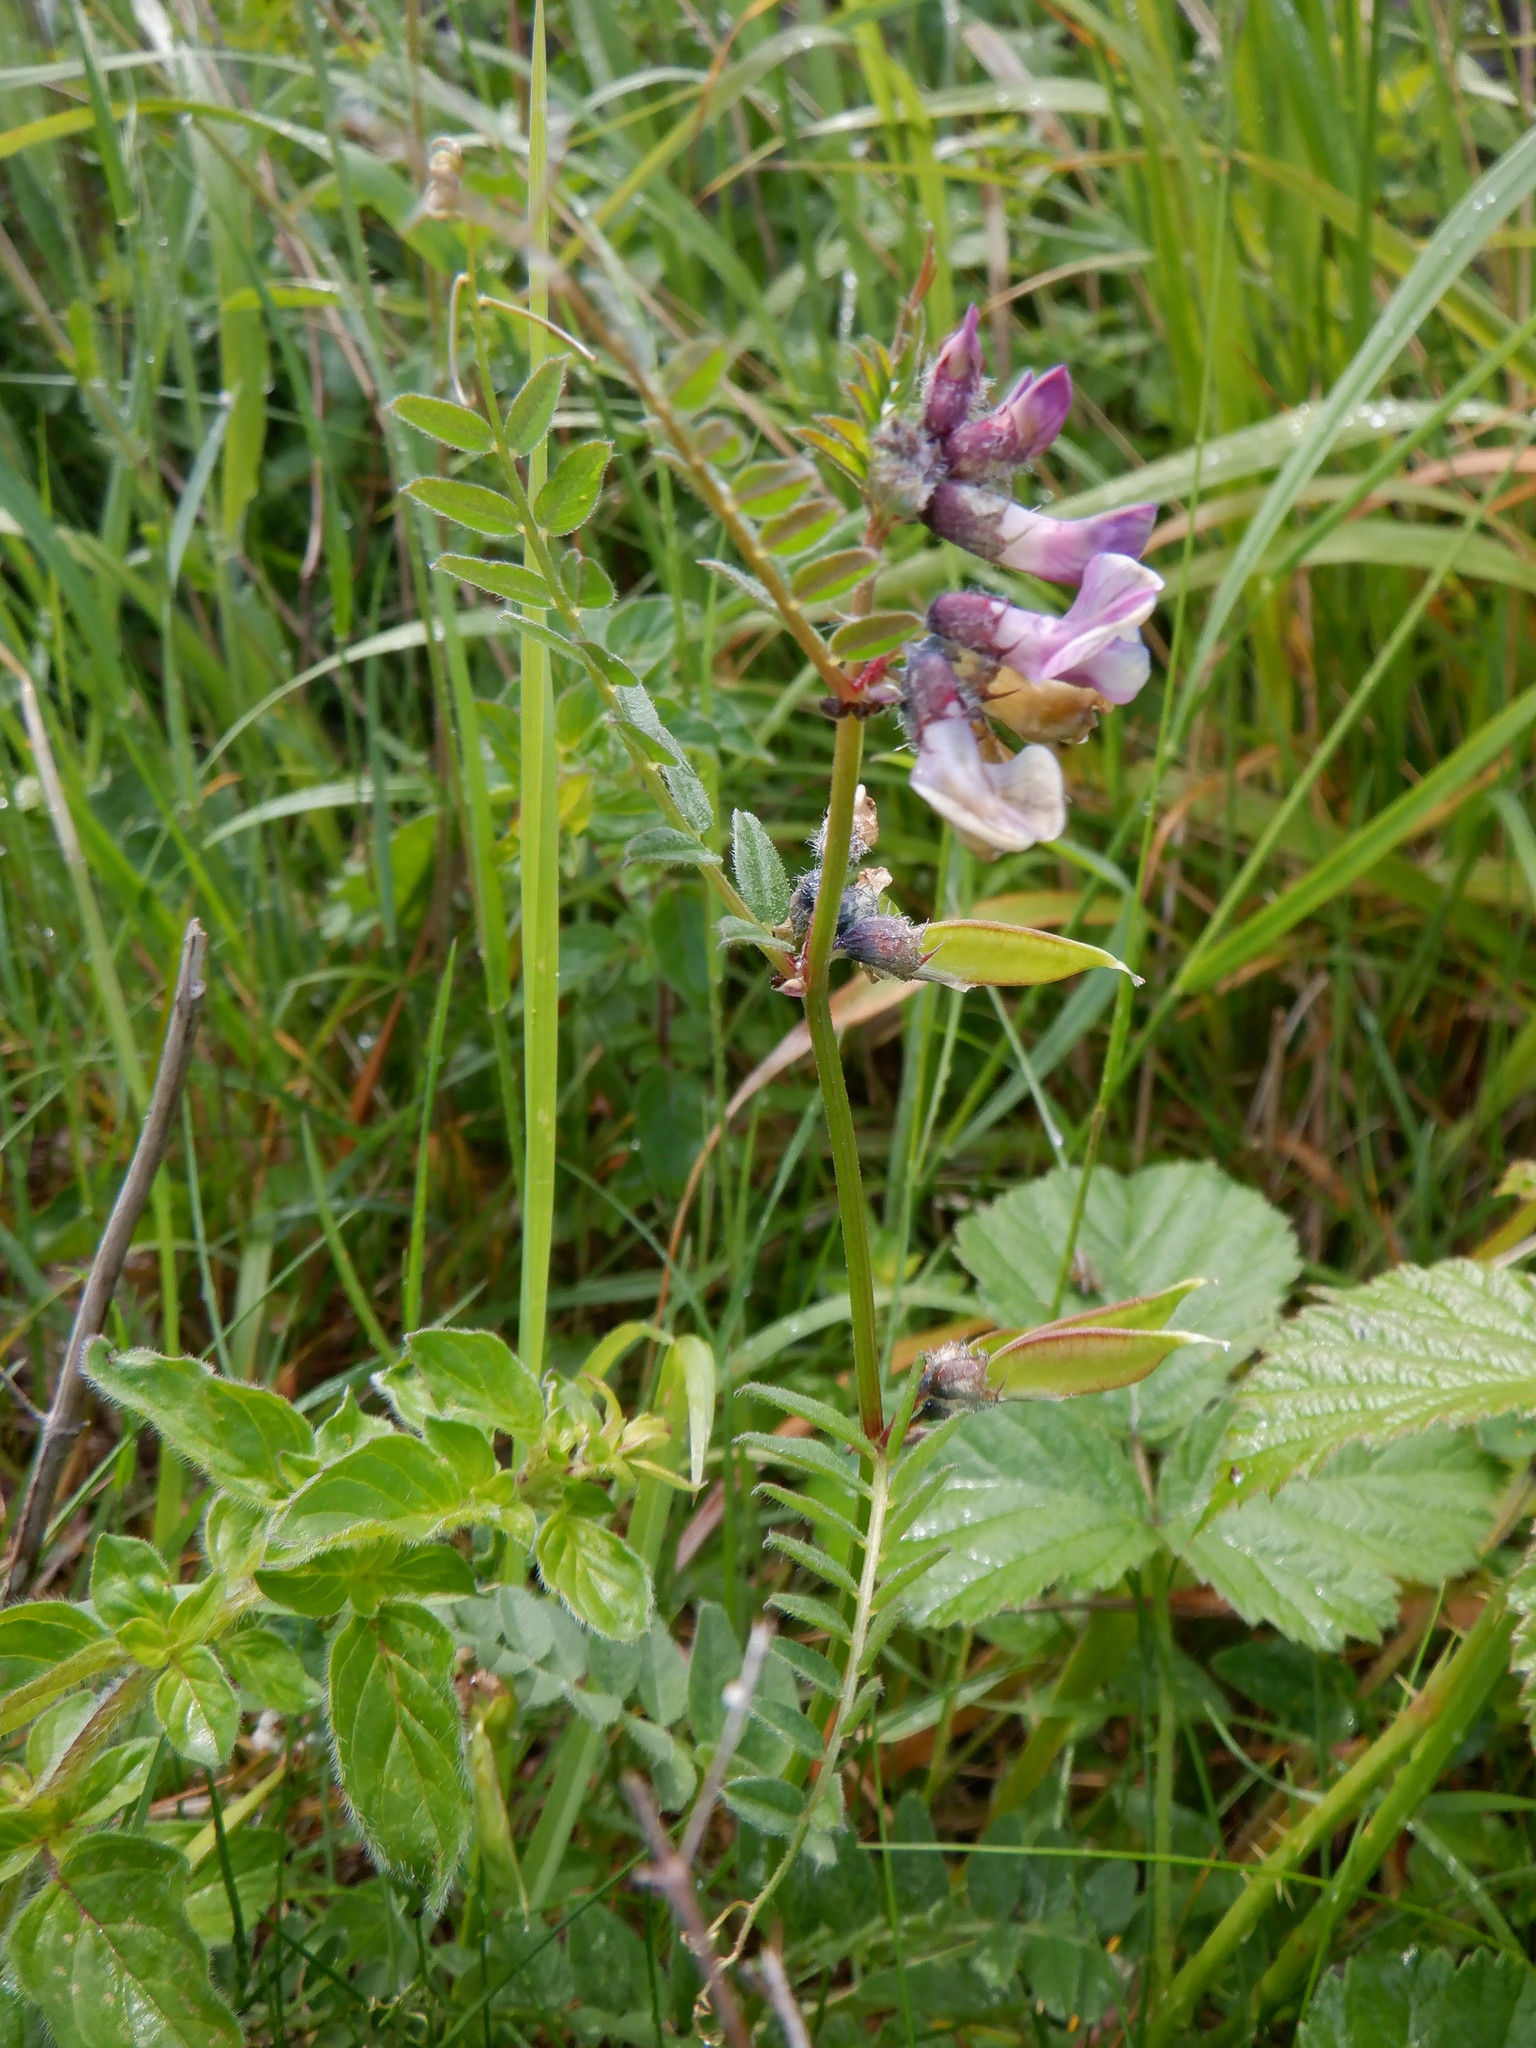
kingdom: Plantae
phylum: Tracheophyta
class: Magnoliopsida
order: Fabales
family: Fabaceae
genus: Vicia
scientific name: Vicia sepium
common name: Bush vetch
